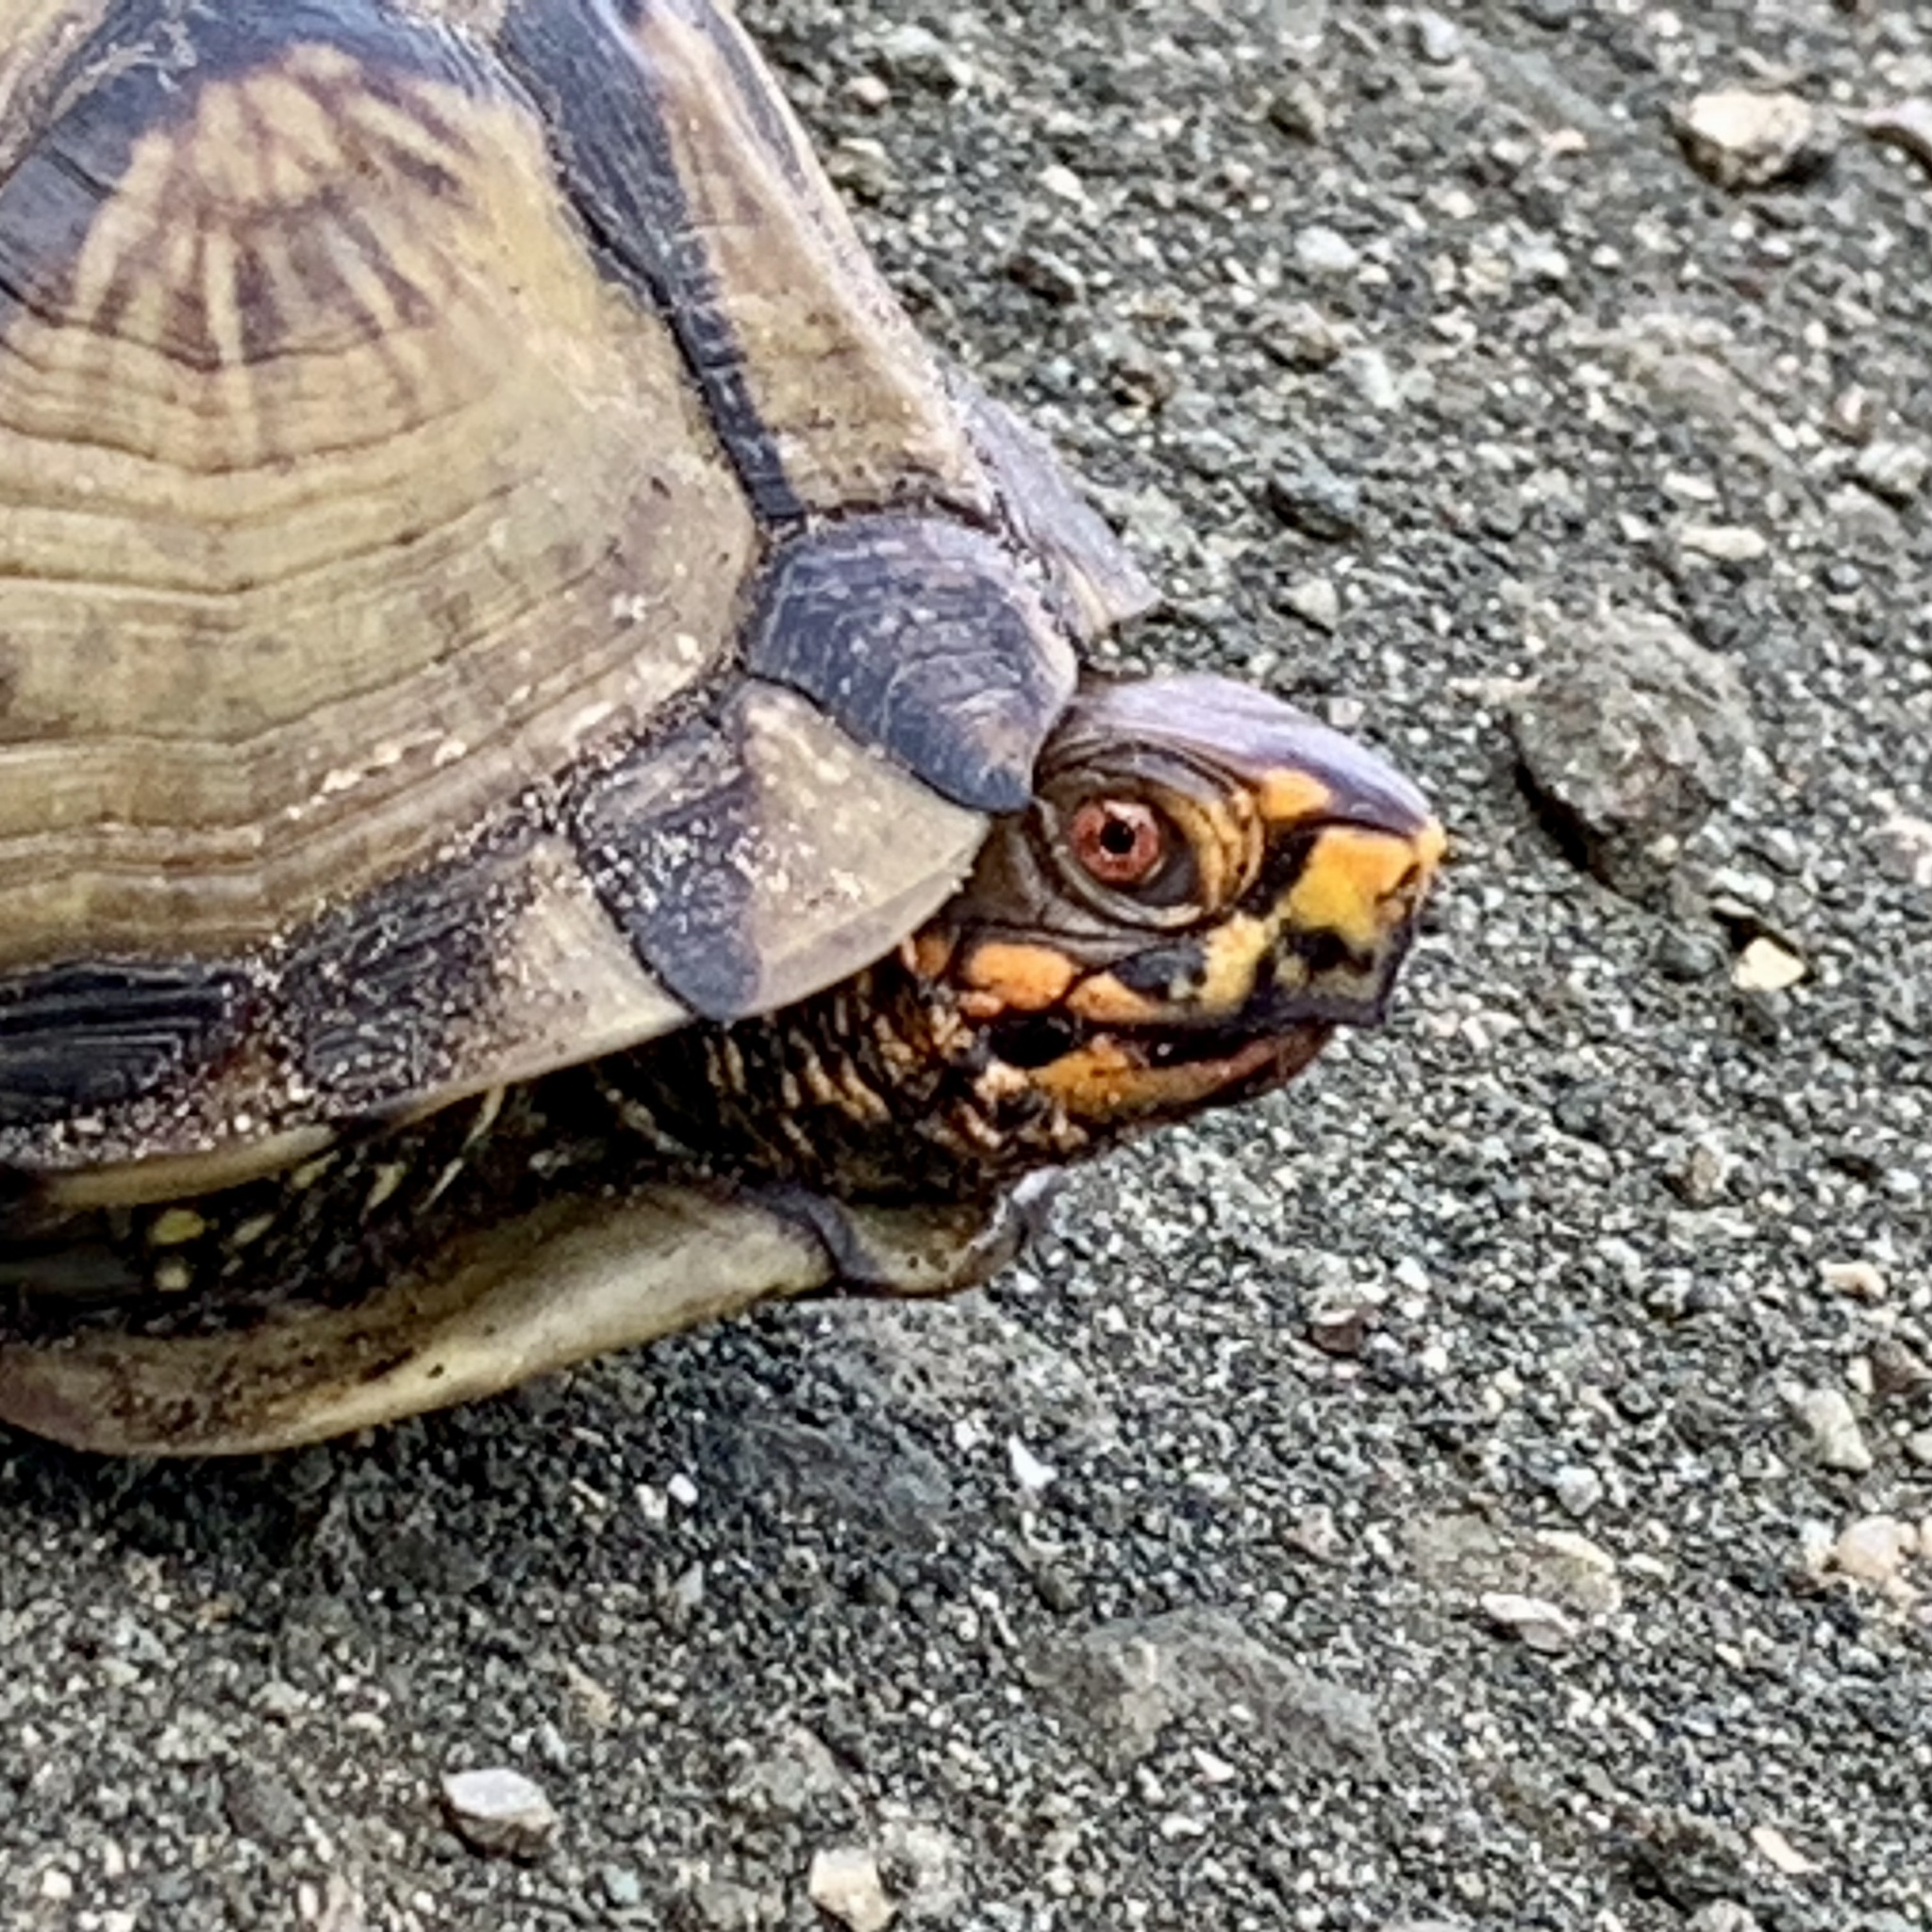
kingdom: Animalia
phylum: Chordata
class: Testudines
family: Emydidae
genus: Terrapene
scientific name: Terrapene carolina
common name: Common box turtle
